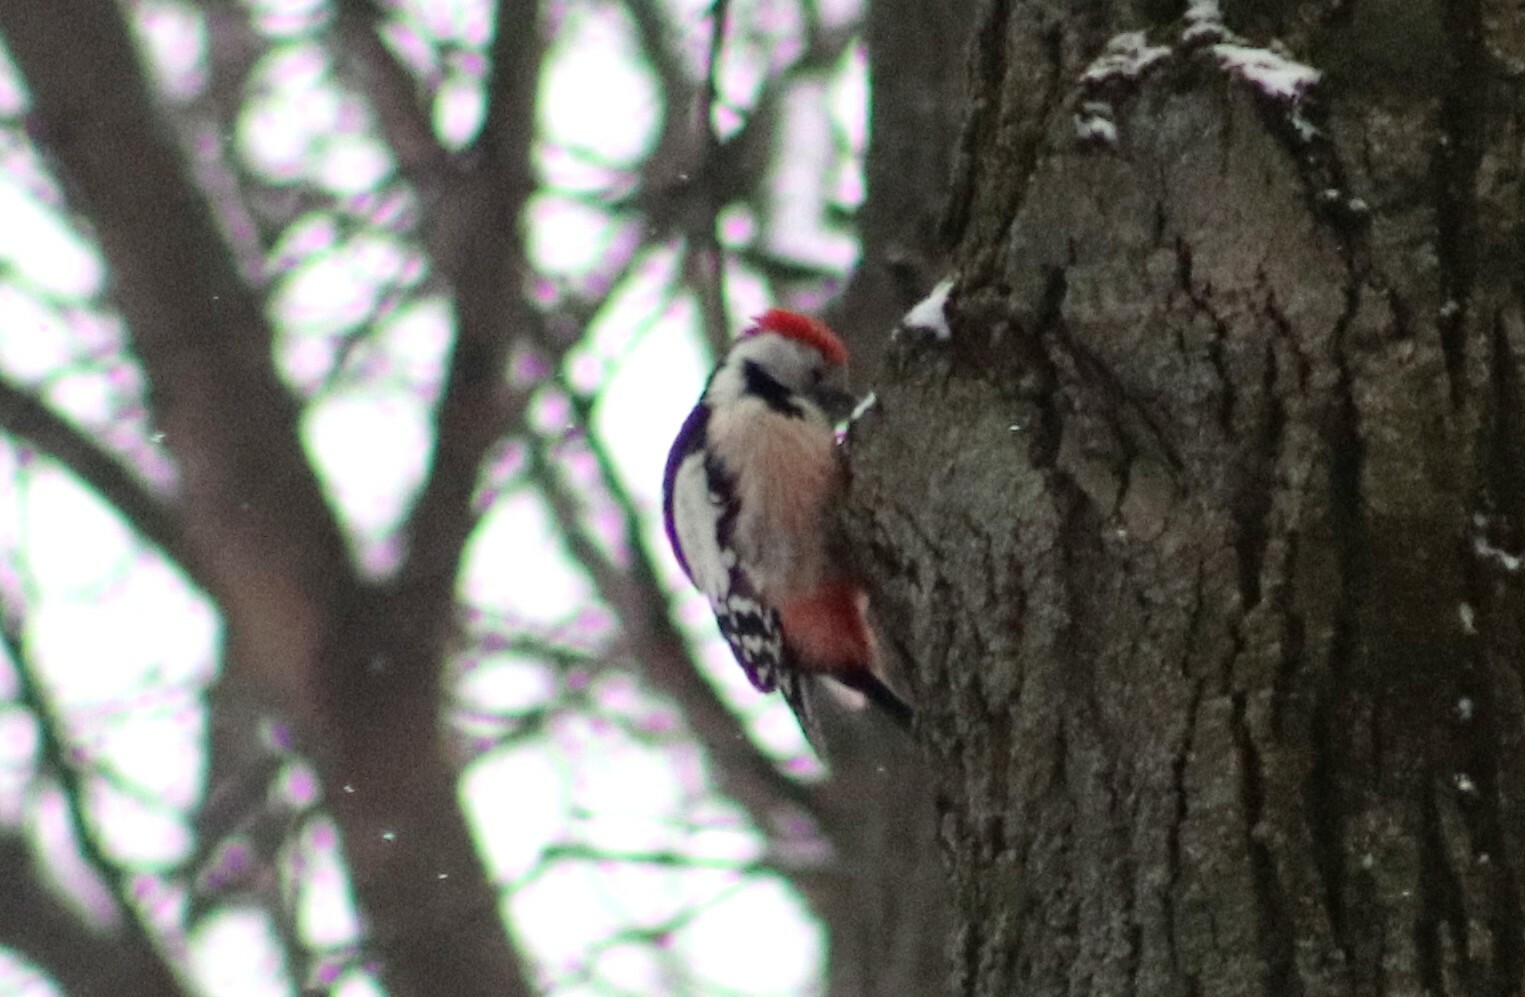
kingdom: Animalia
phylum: Chordata
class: Aves
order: Piciformes
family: Picidae
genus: Dendrocoptes
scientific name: Dendrocoptes medius
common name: Middle spotted woodpecker
